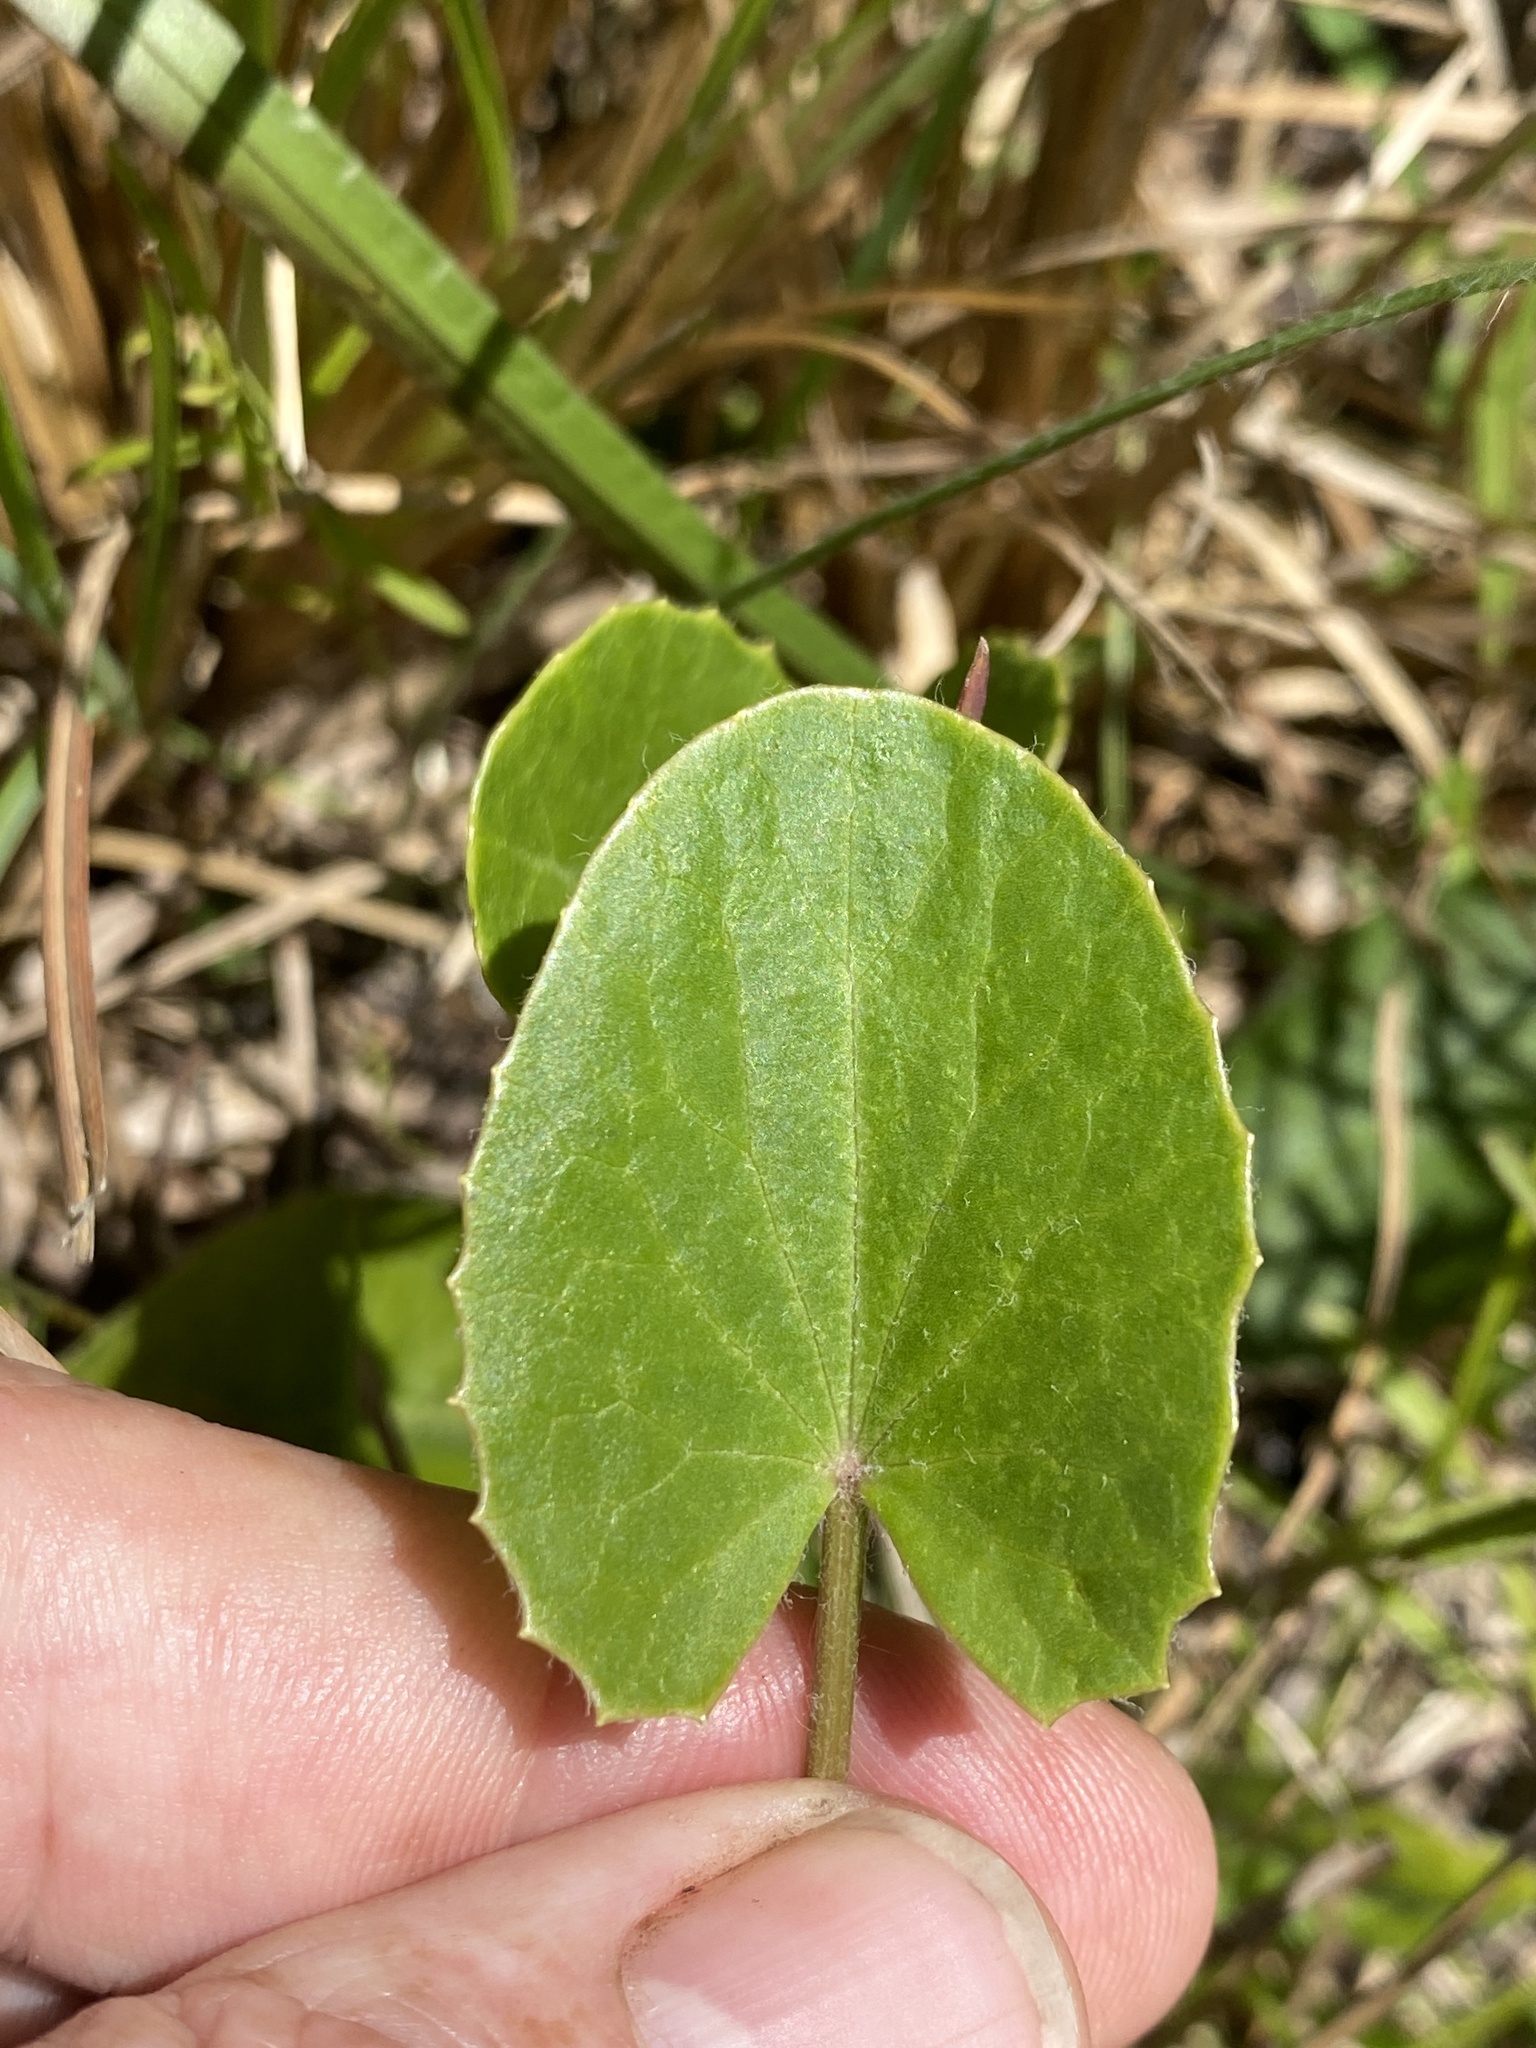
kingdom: Plantae
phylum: Tracheophyta
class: Magnoliopsida
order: Apiales
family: Apiaceae
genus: Centella
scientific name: Centella erecta
